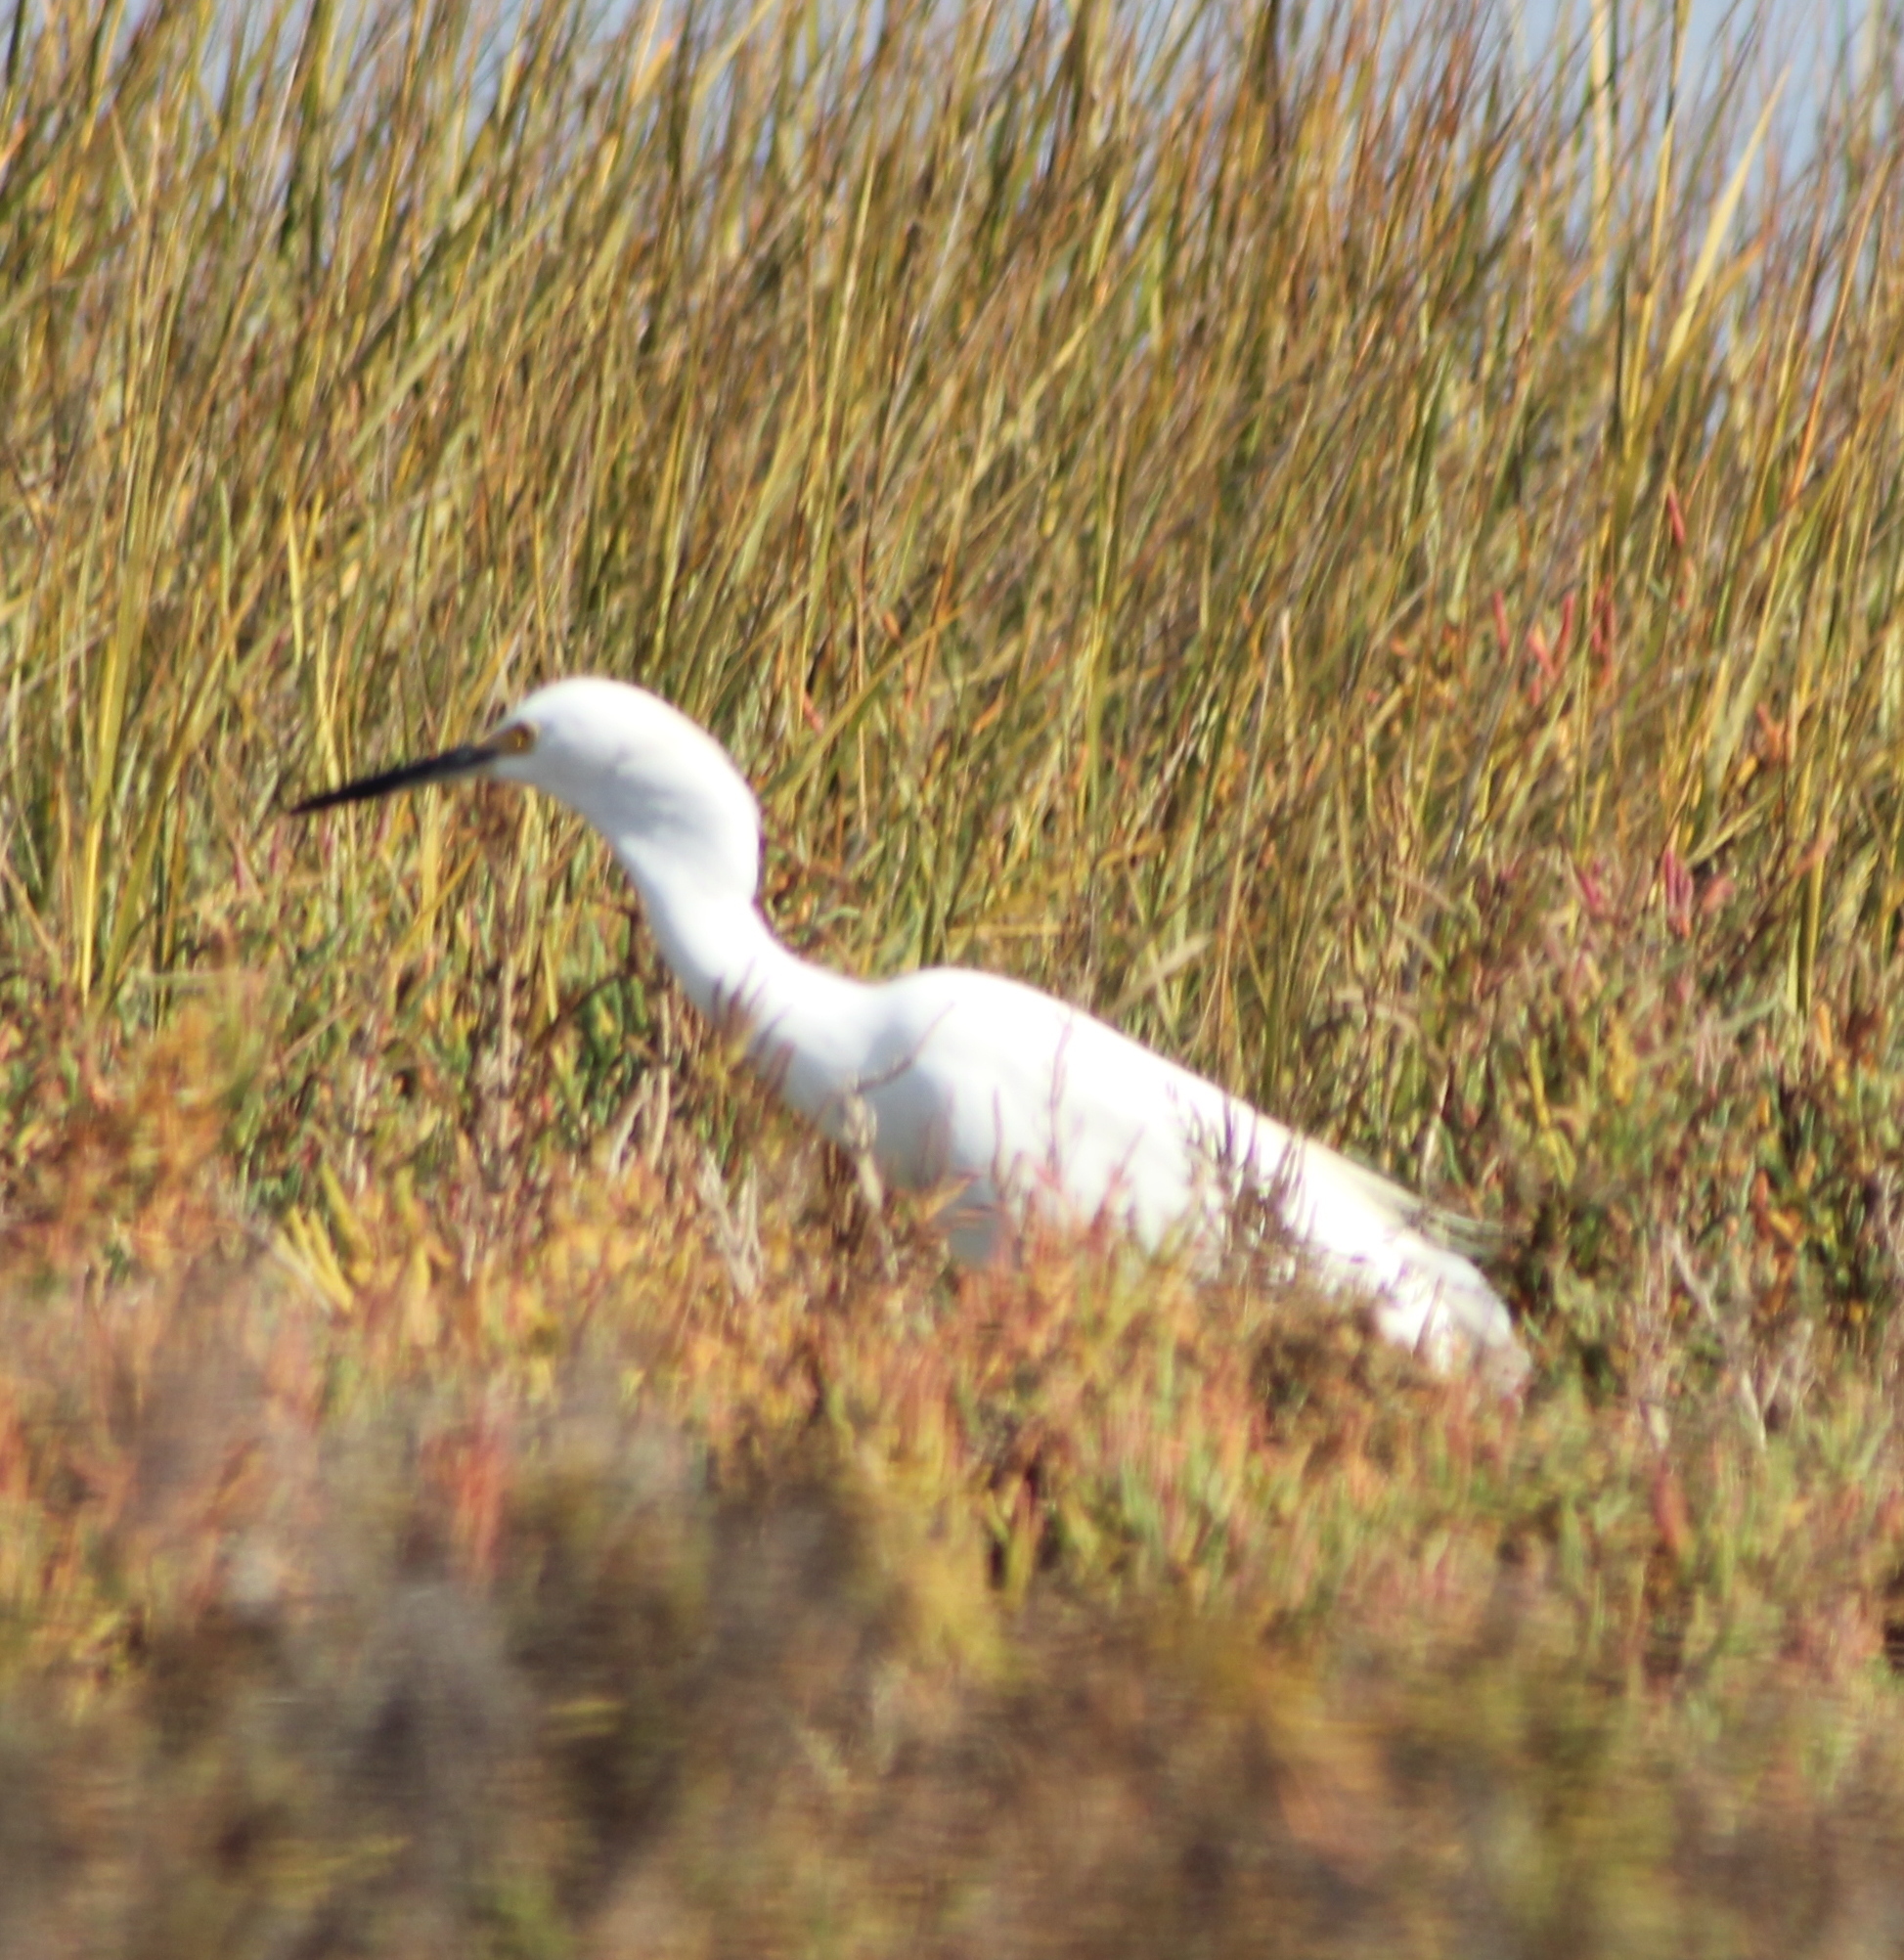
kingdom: Animalia
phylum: Chordata
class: Aves
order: Pelecaniformes
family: Ardeidae
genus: Egretta
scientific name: Egretta thula
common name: Snowy egret
